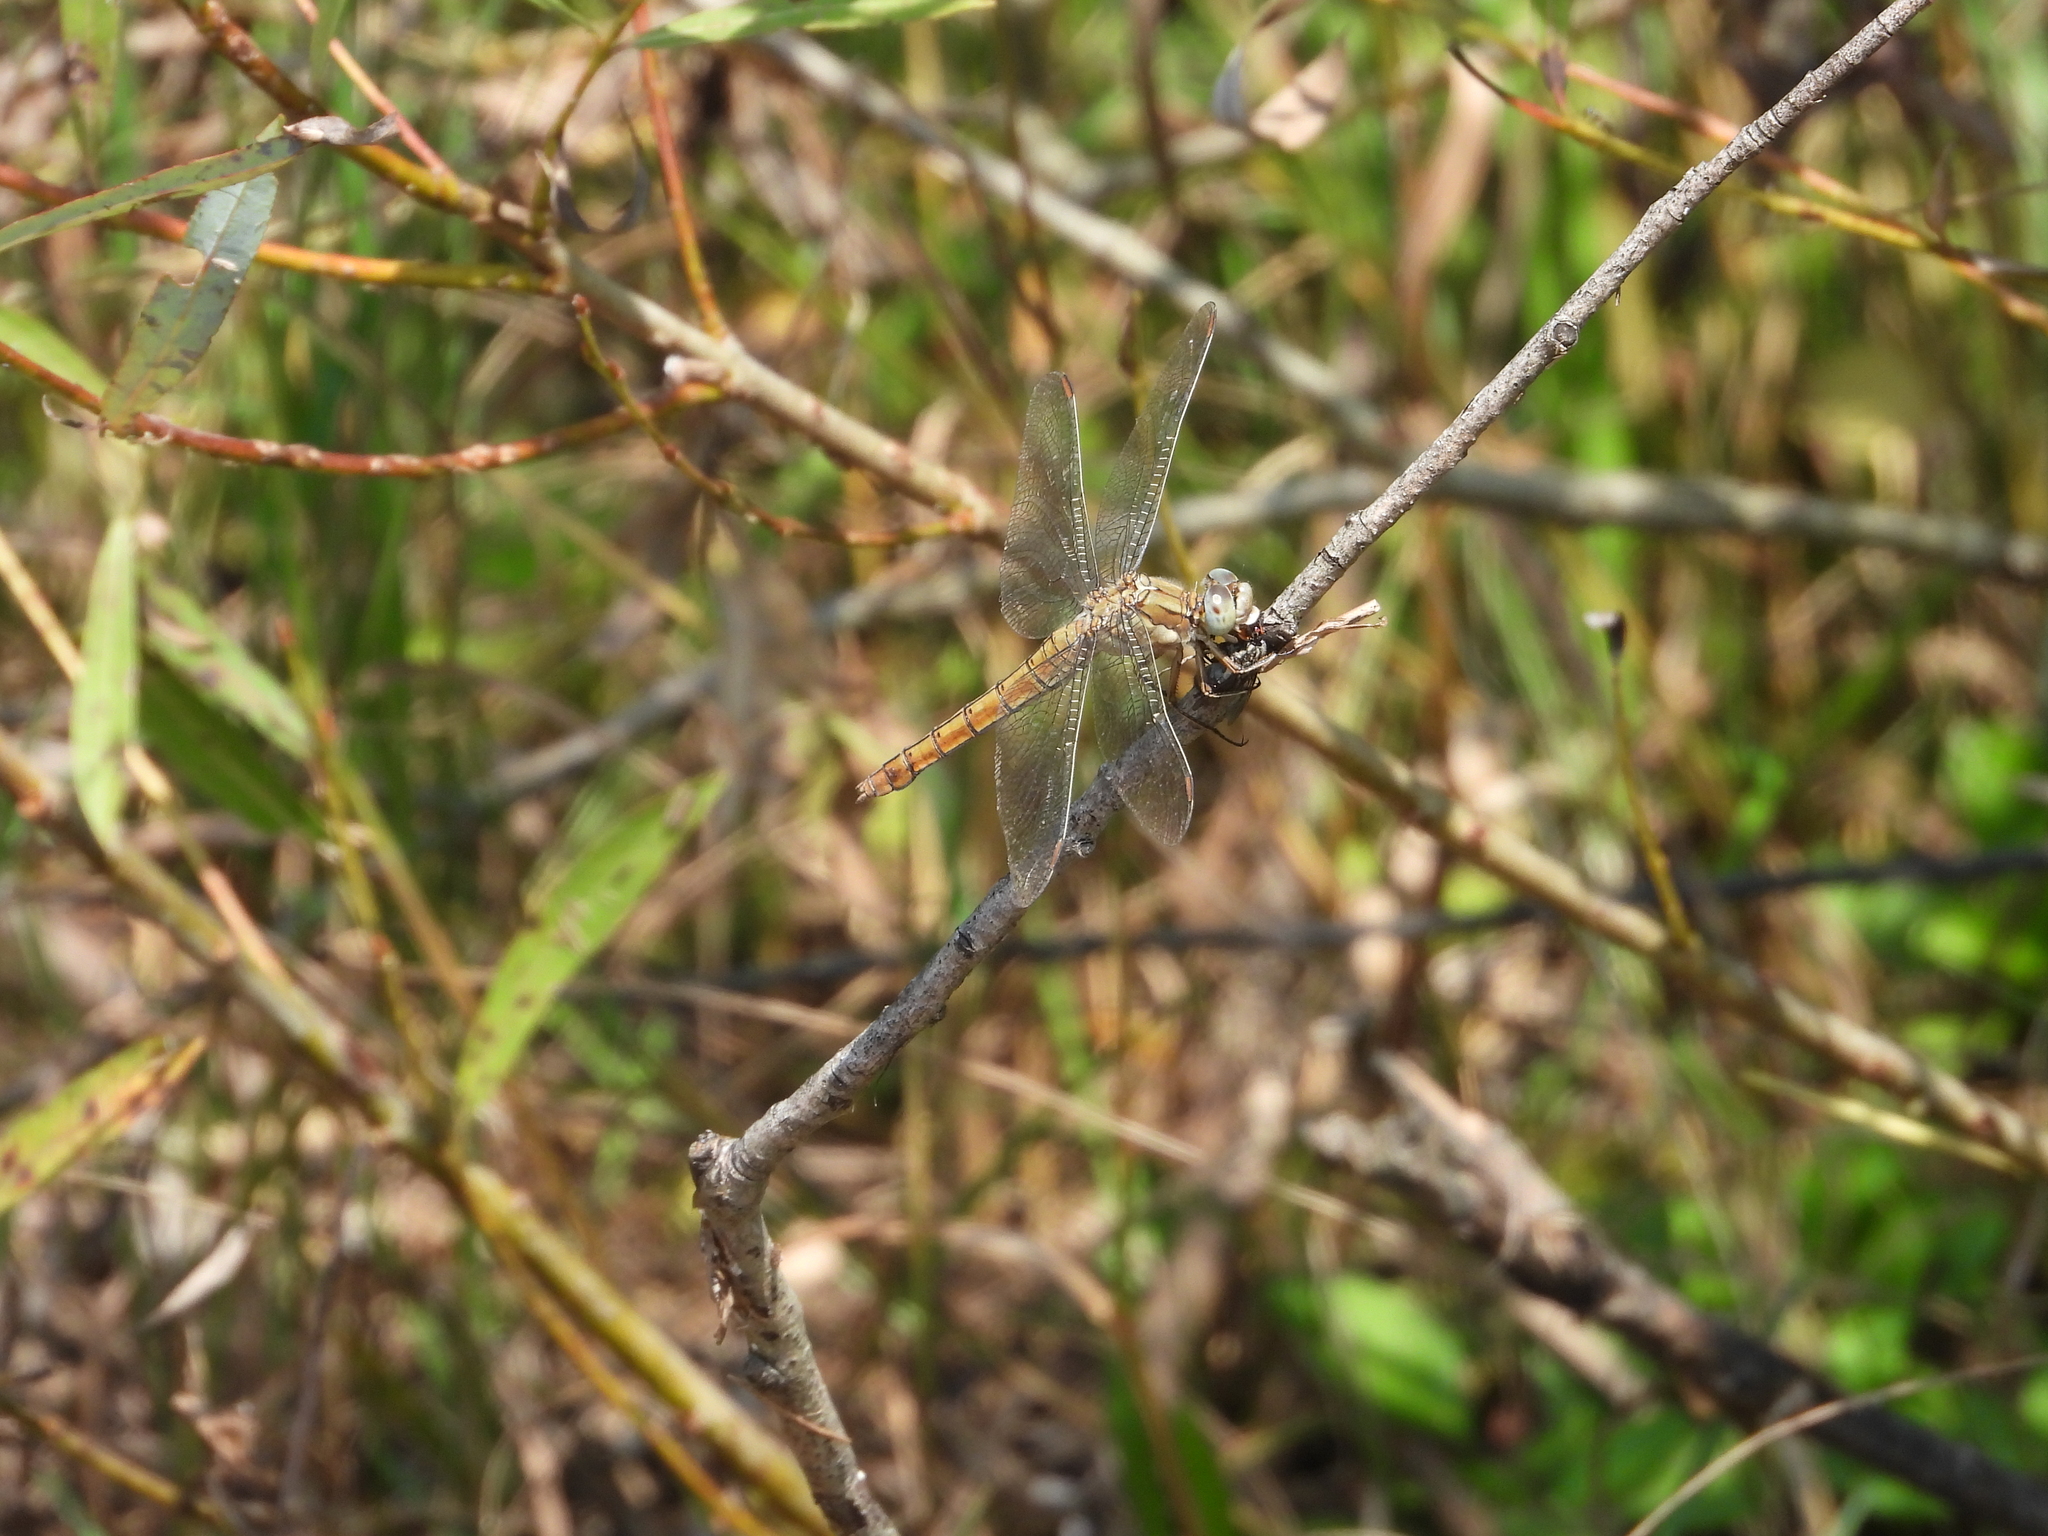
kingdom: Animalia
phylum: Arthropoda
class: Insecta
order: Odonata
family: Libellulidae
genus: Orthetrum
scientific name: Orthetrum brunneum
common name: Southern skimmer
